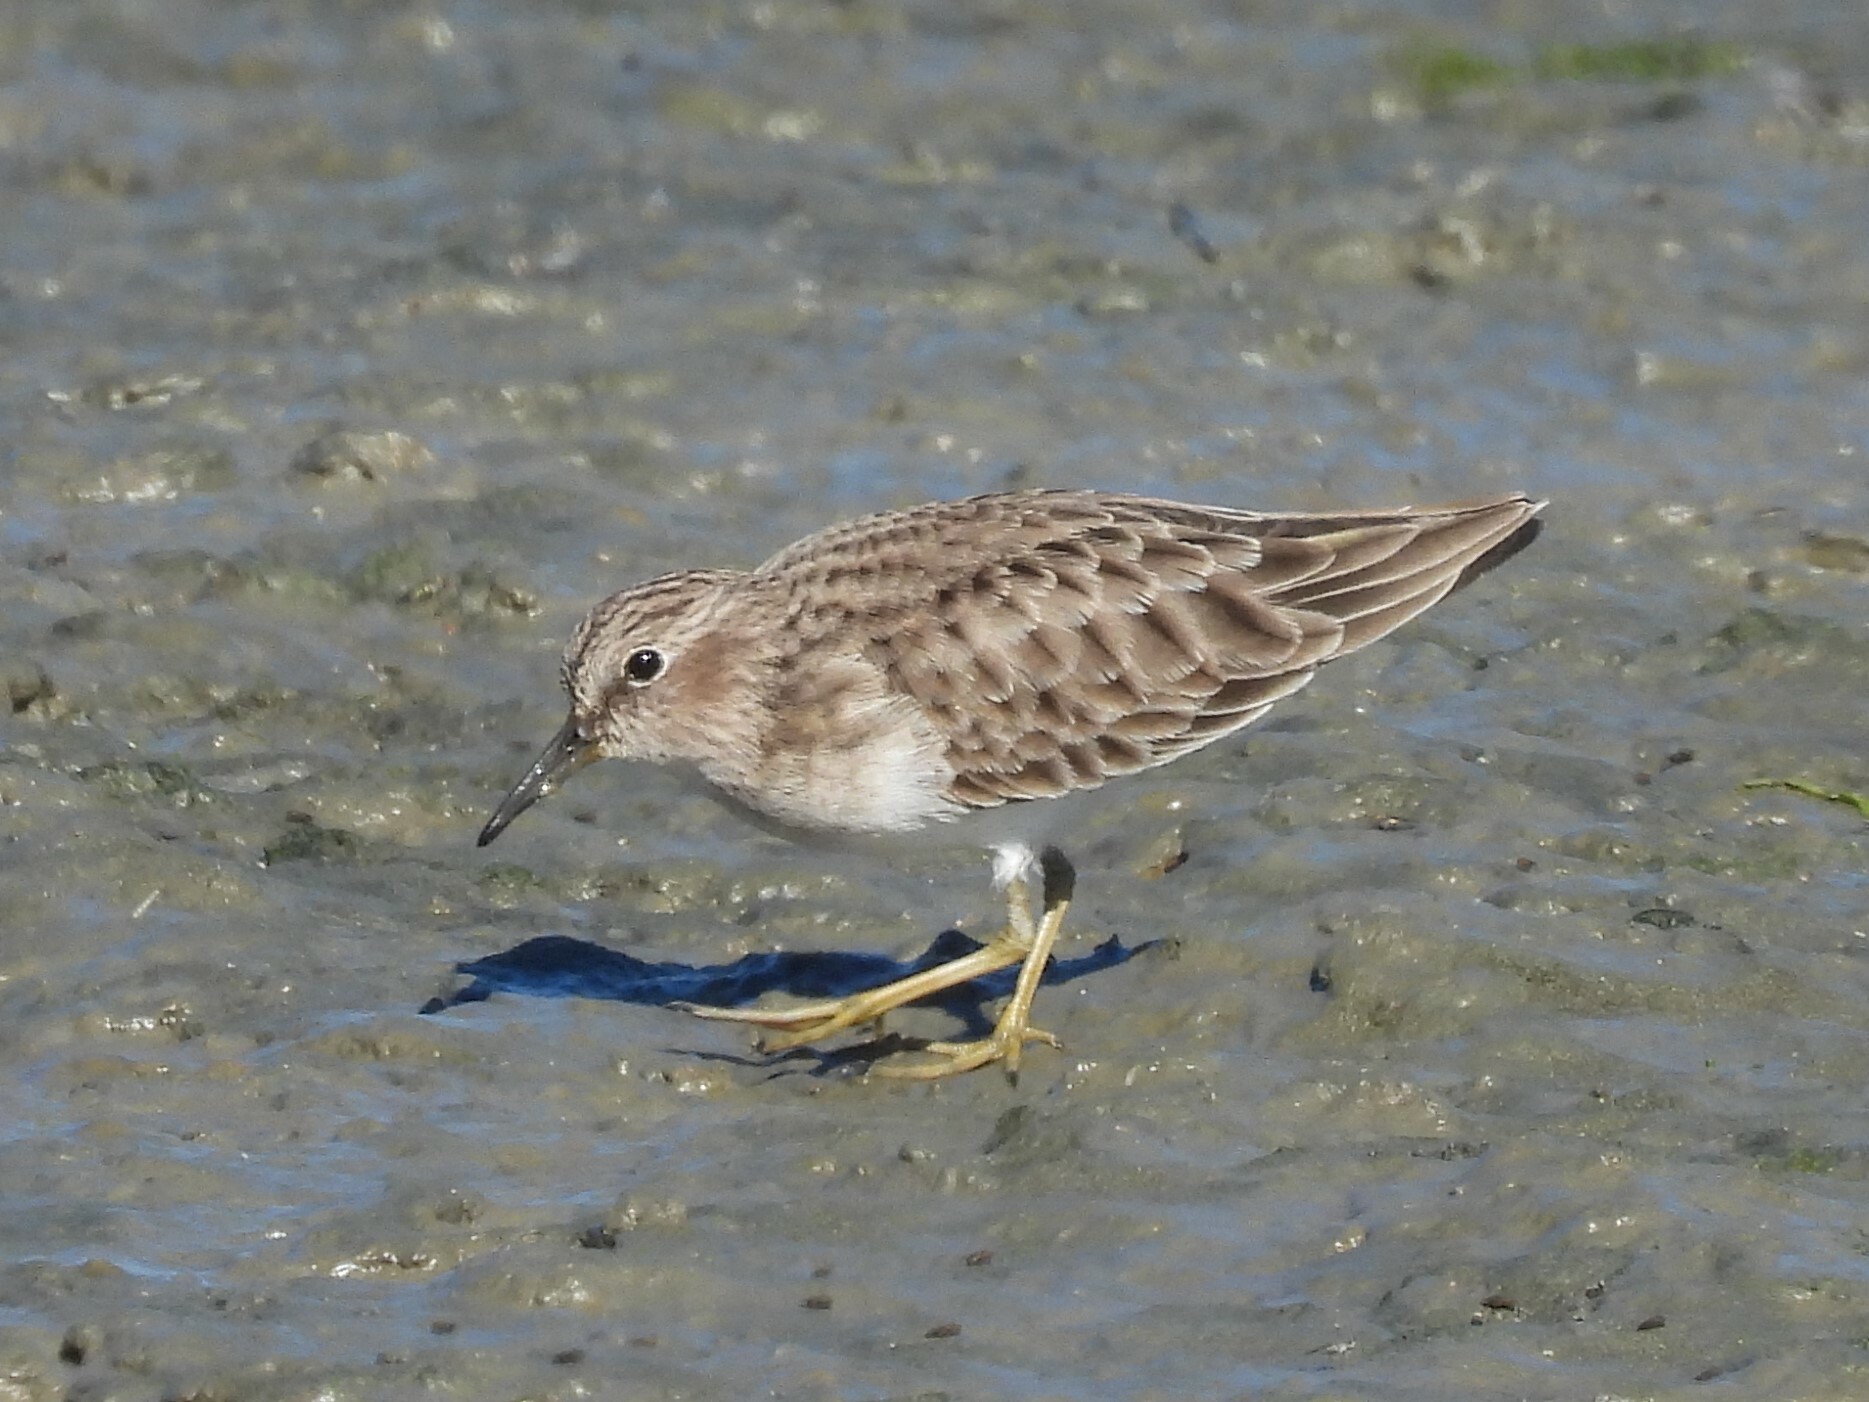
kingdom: Animalia
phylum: Chordata
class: Aves
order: Charadriiformes
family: Scolopacidae
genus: Calidris
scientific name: Calidris minutilla
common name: Least sandpiper
